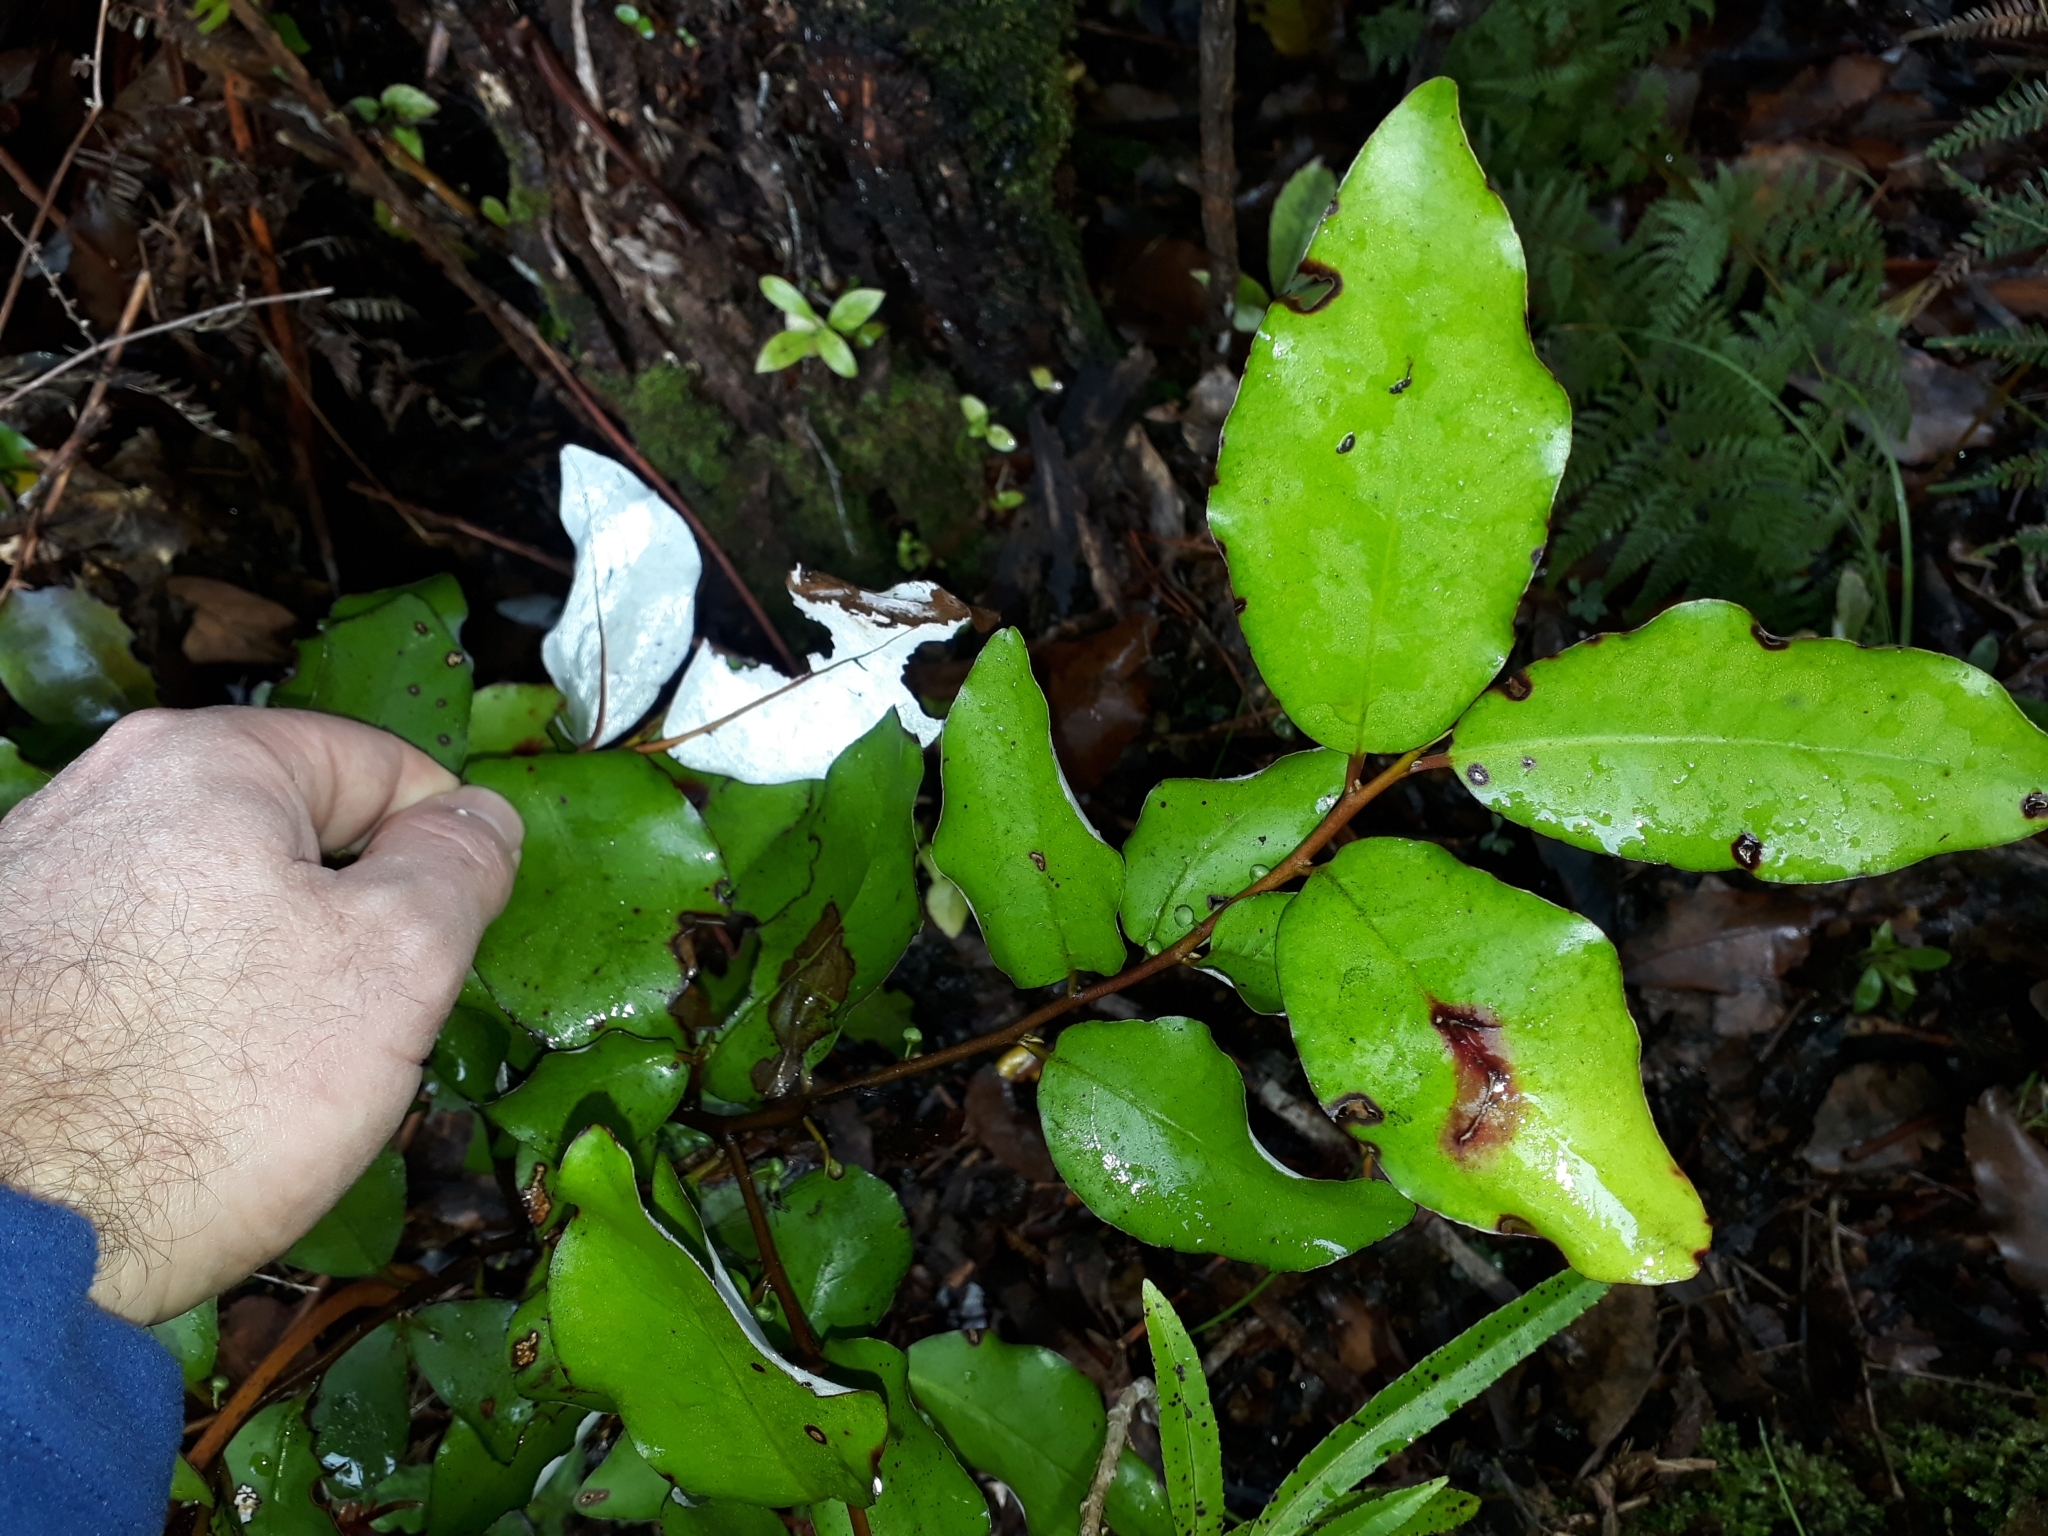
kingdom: Plantae
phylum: Tracheophyta
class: Magnoliopsida
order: Canellales
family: Winteraceae
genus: Pseudowintera
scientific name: Pseudowintera colorata
